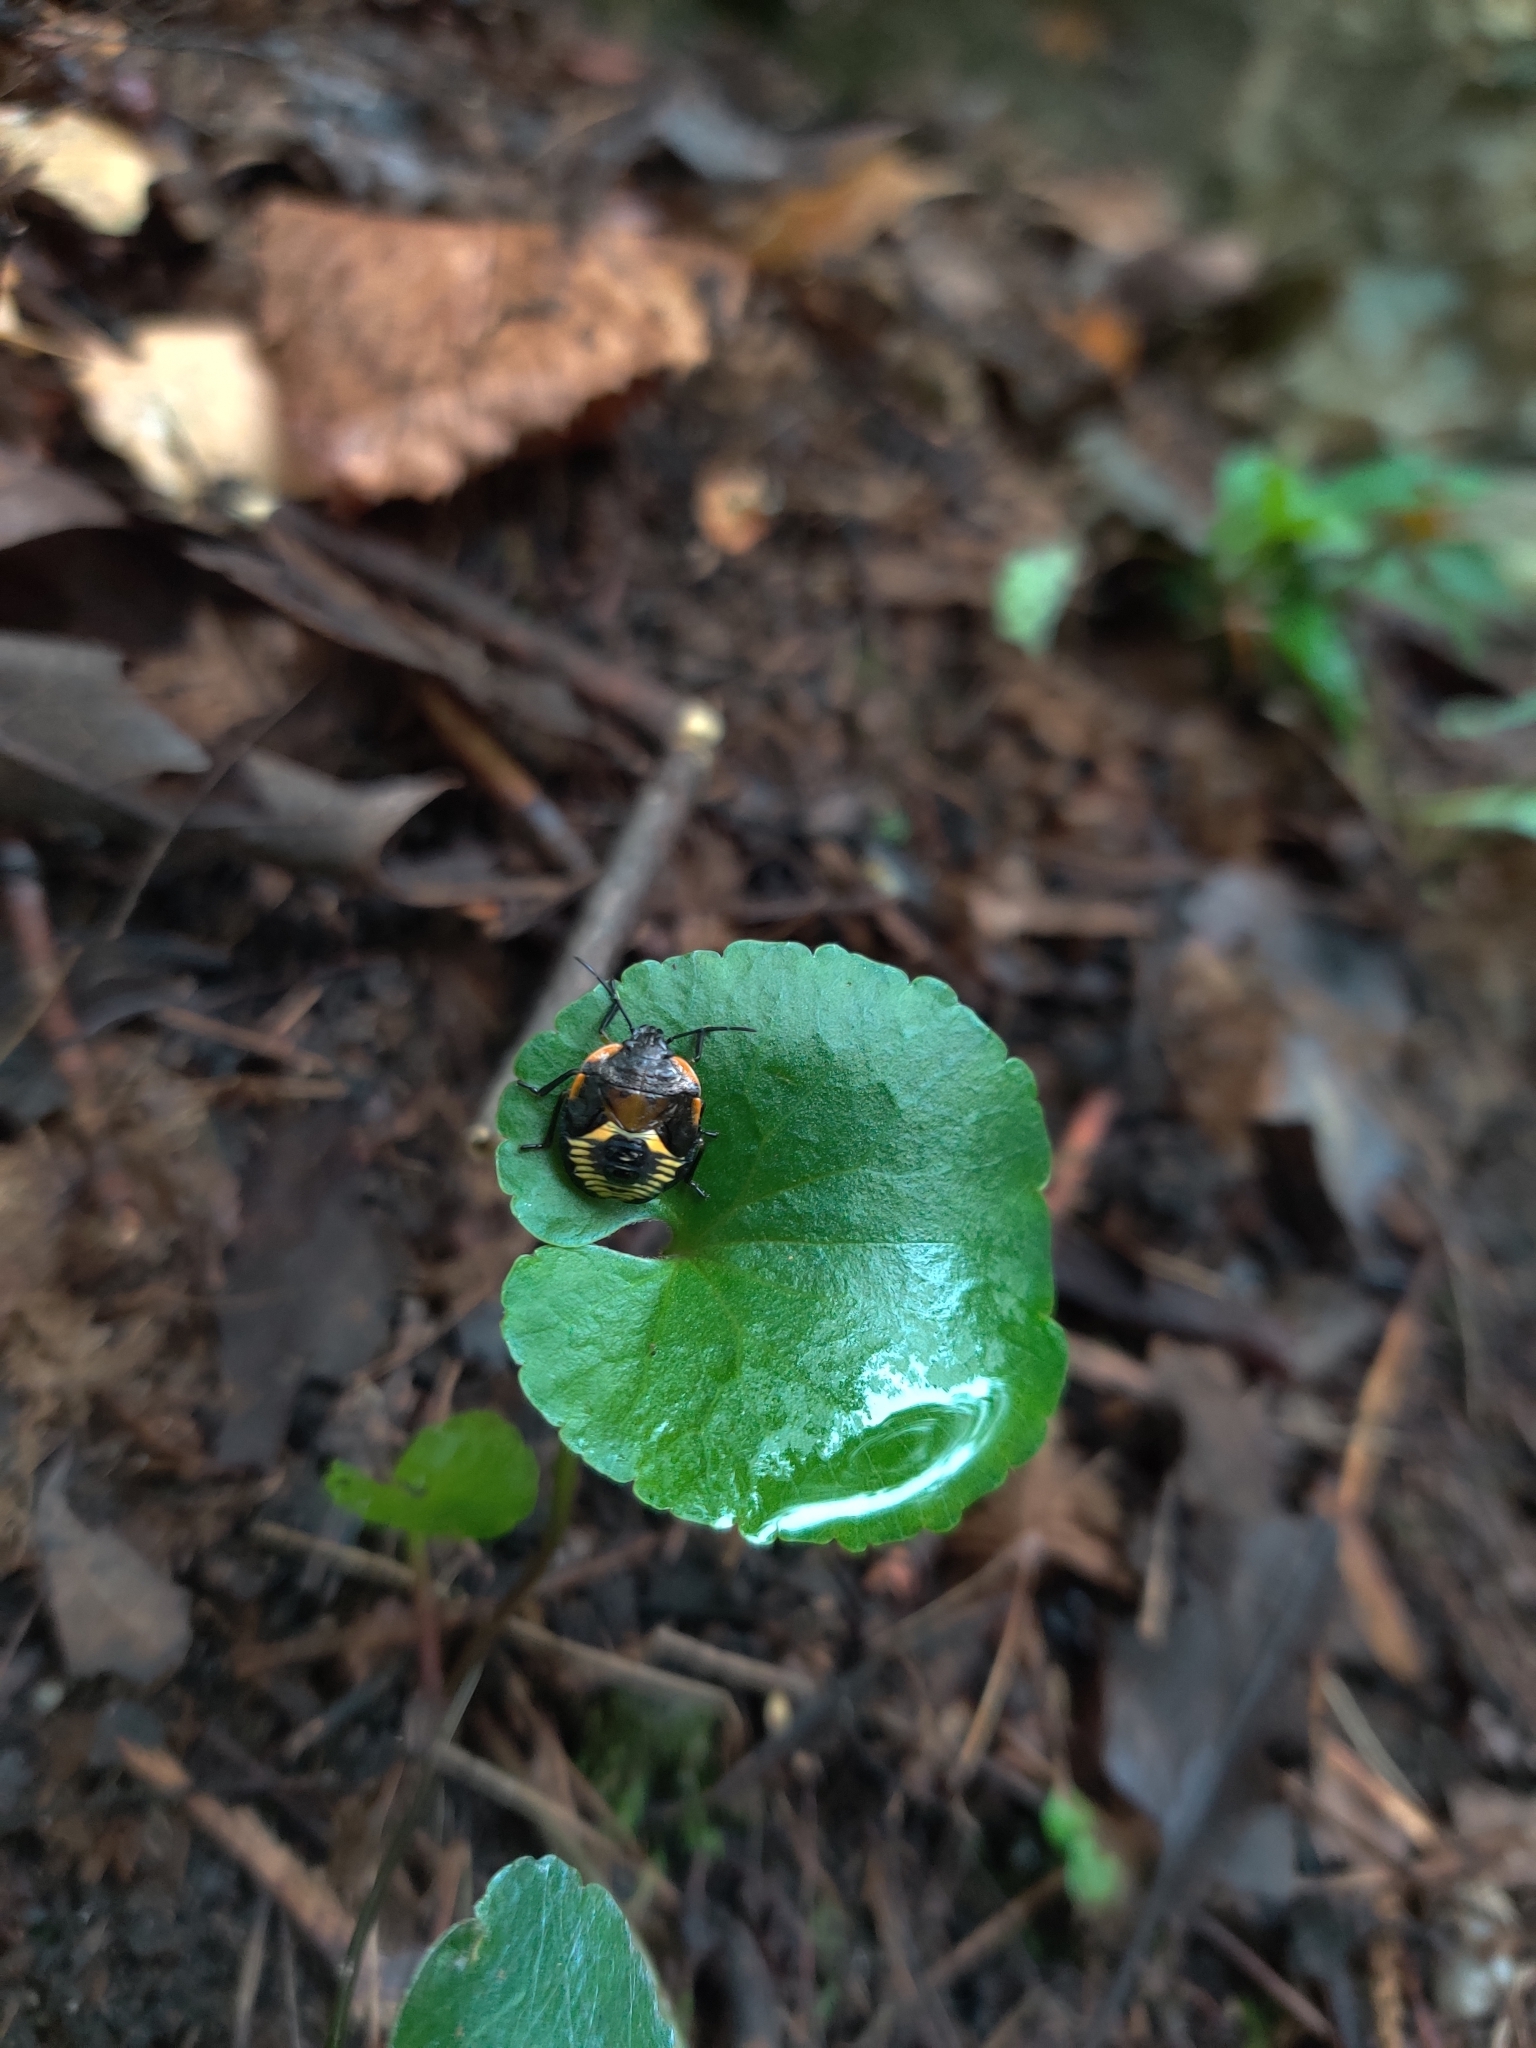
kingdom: Animalia
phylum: Arthropoda
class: Insecta
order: Hemiptera
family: Pentatomidae
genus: Chinavia
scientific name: Chinavia hilaris
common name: Green stink bug
